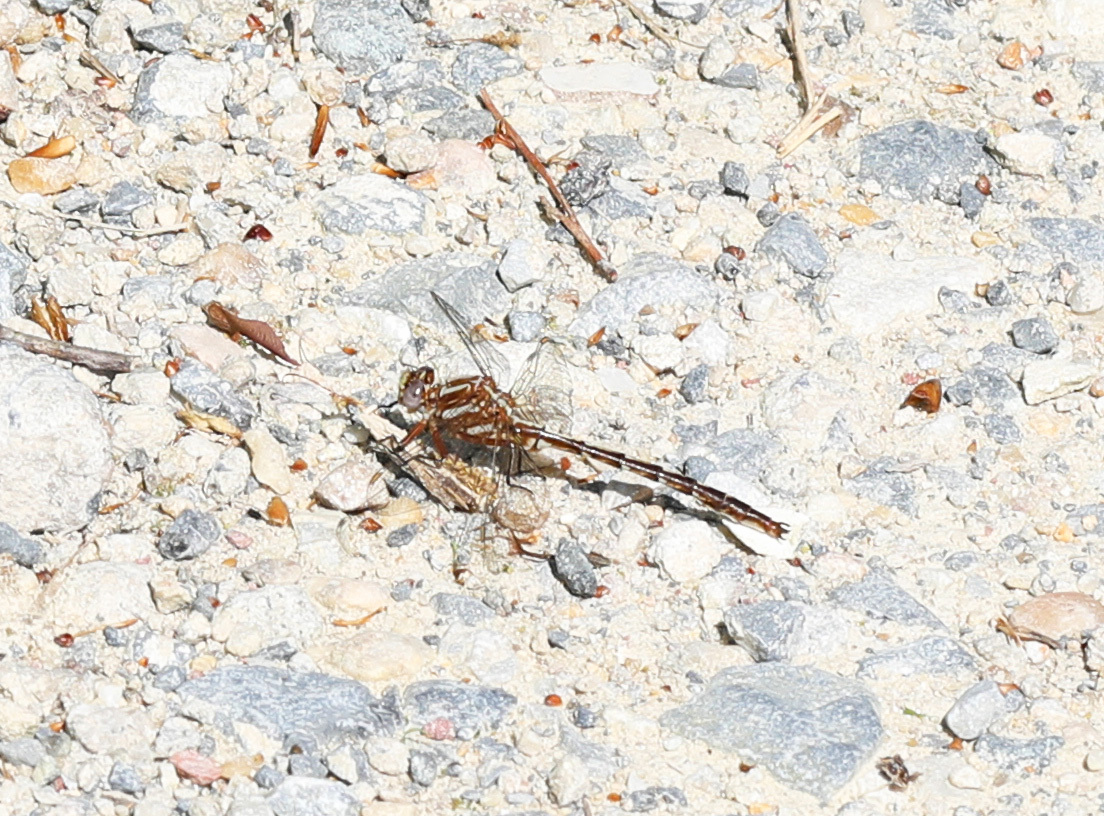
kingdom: Animalia
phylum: Arthropoda
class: Insecta
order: Odonata
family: Gomphidae
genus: Phanogomphus
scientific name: Phanogomphus lividus
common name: Ashy clubtail
